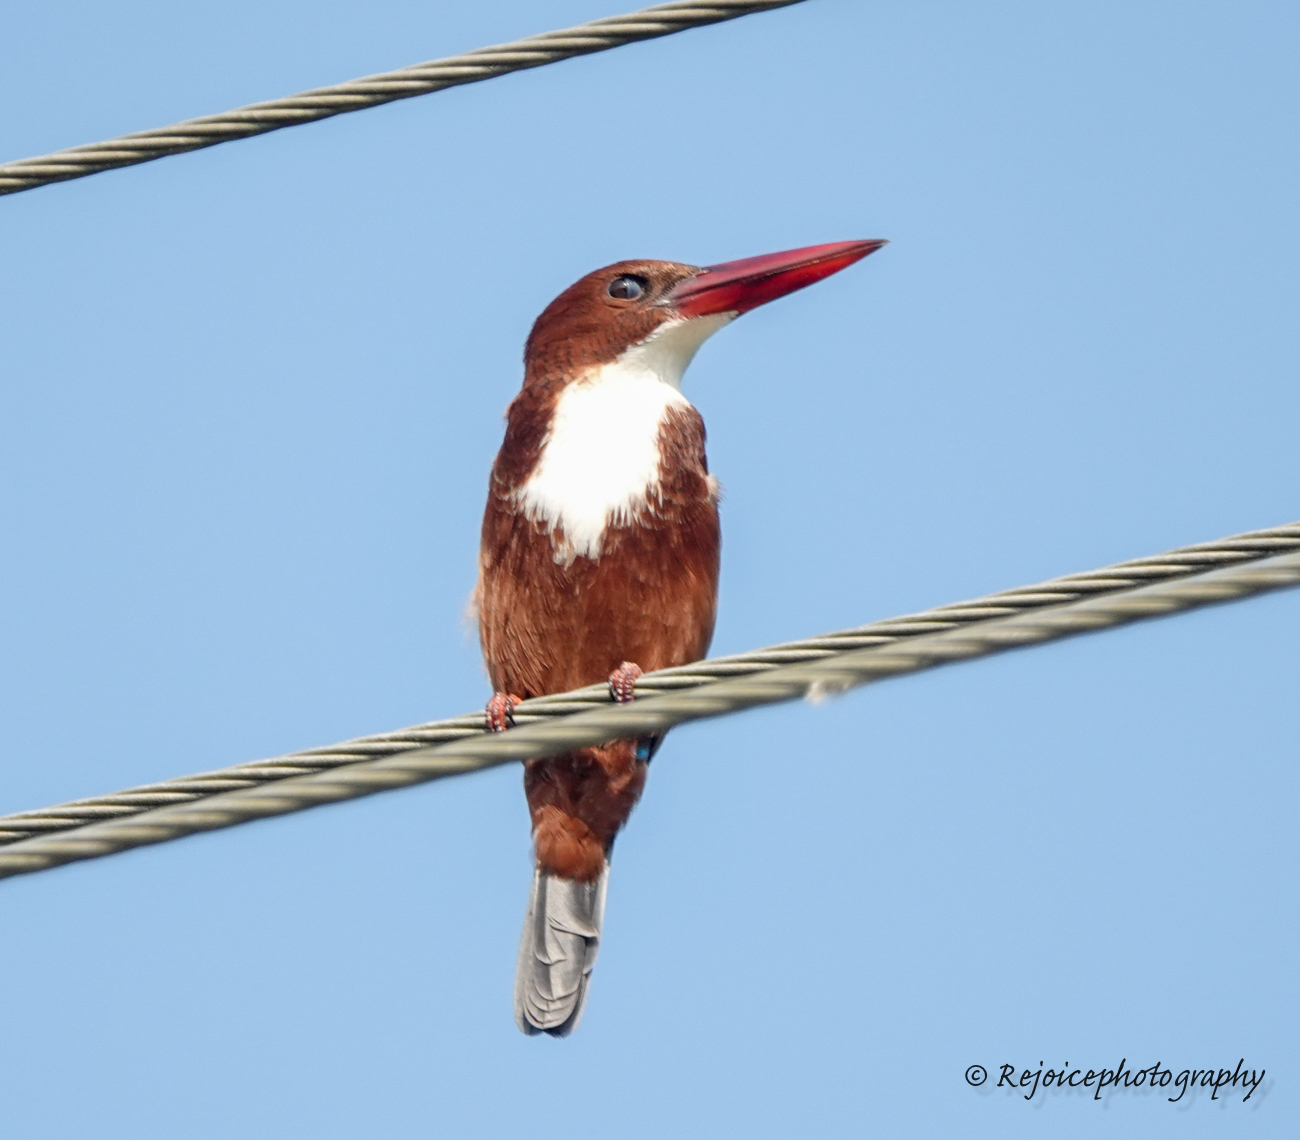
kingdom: Animalia
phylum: Chordata
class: Aves
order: Coraciiformes
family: Alcedinidae
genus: Halcyon
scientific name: Halcyon smyrnensis
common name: White-throated kingfisher
